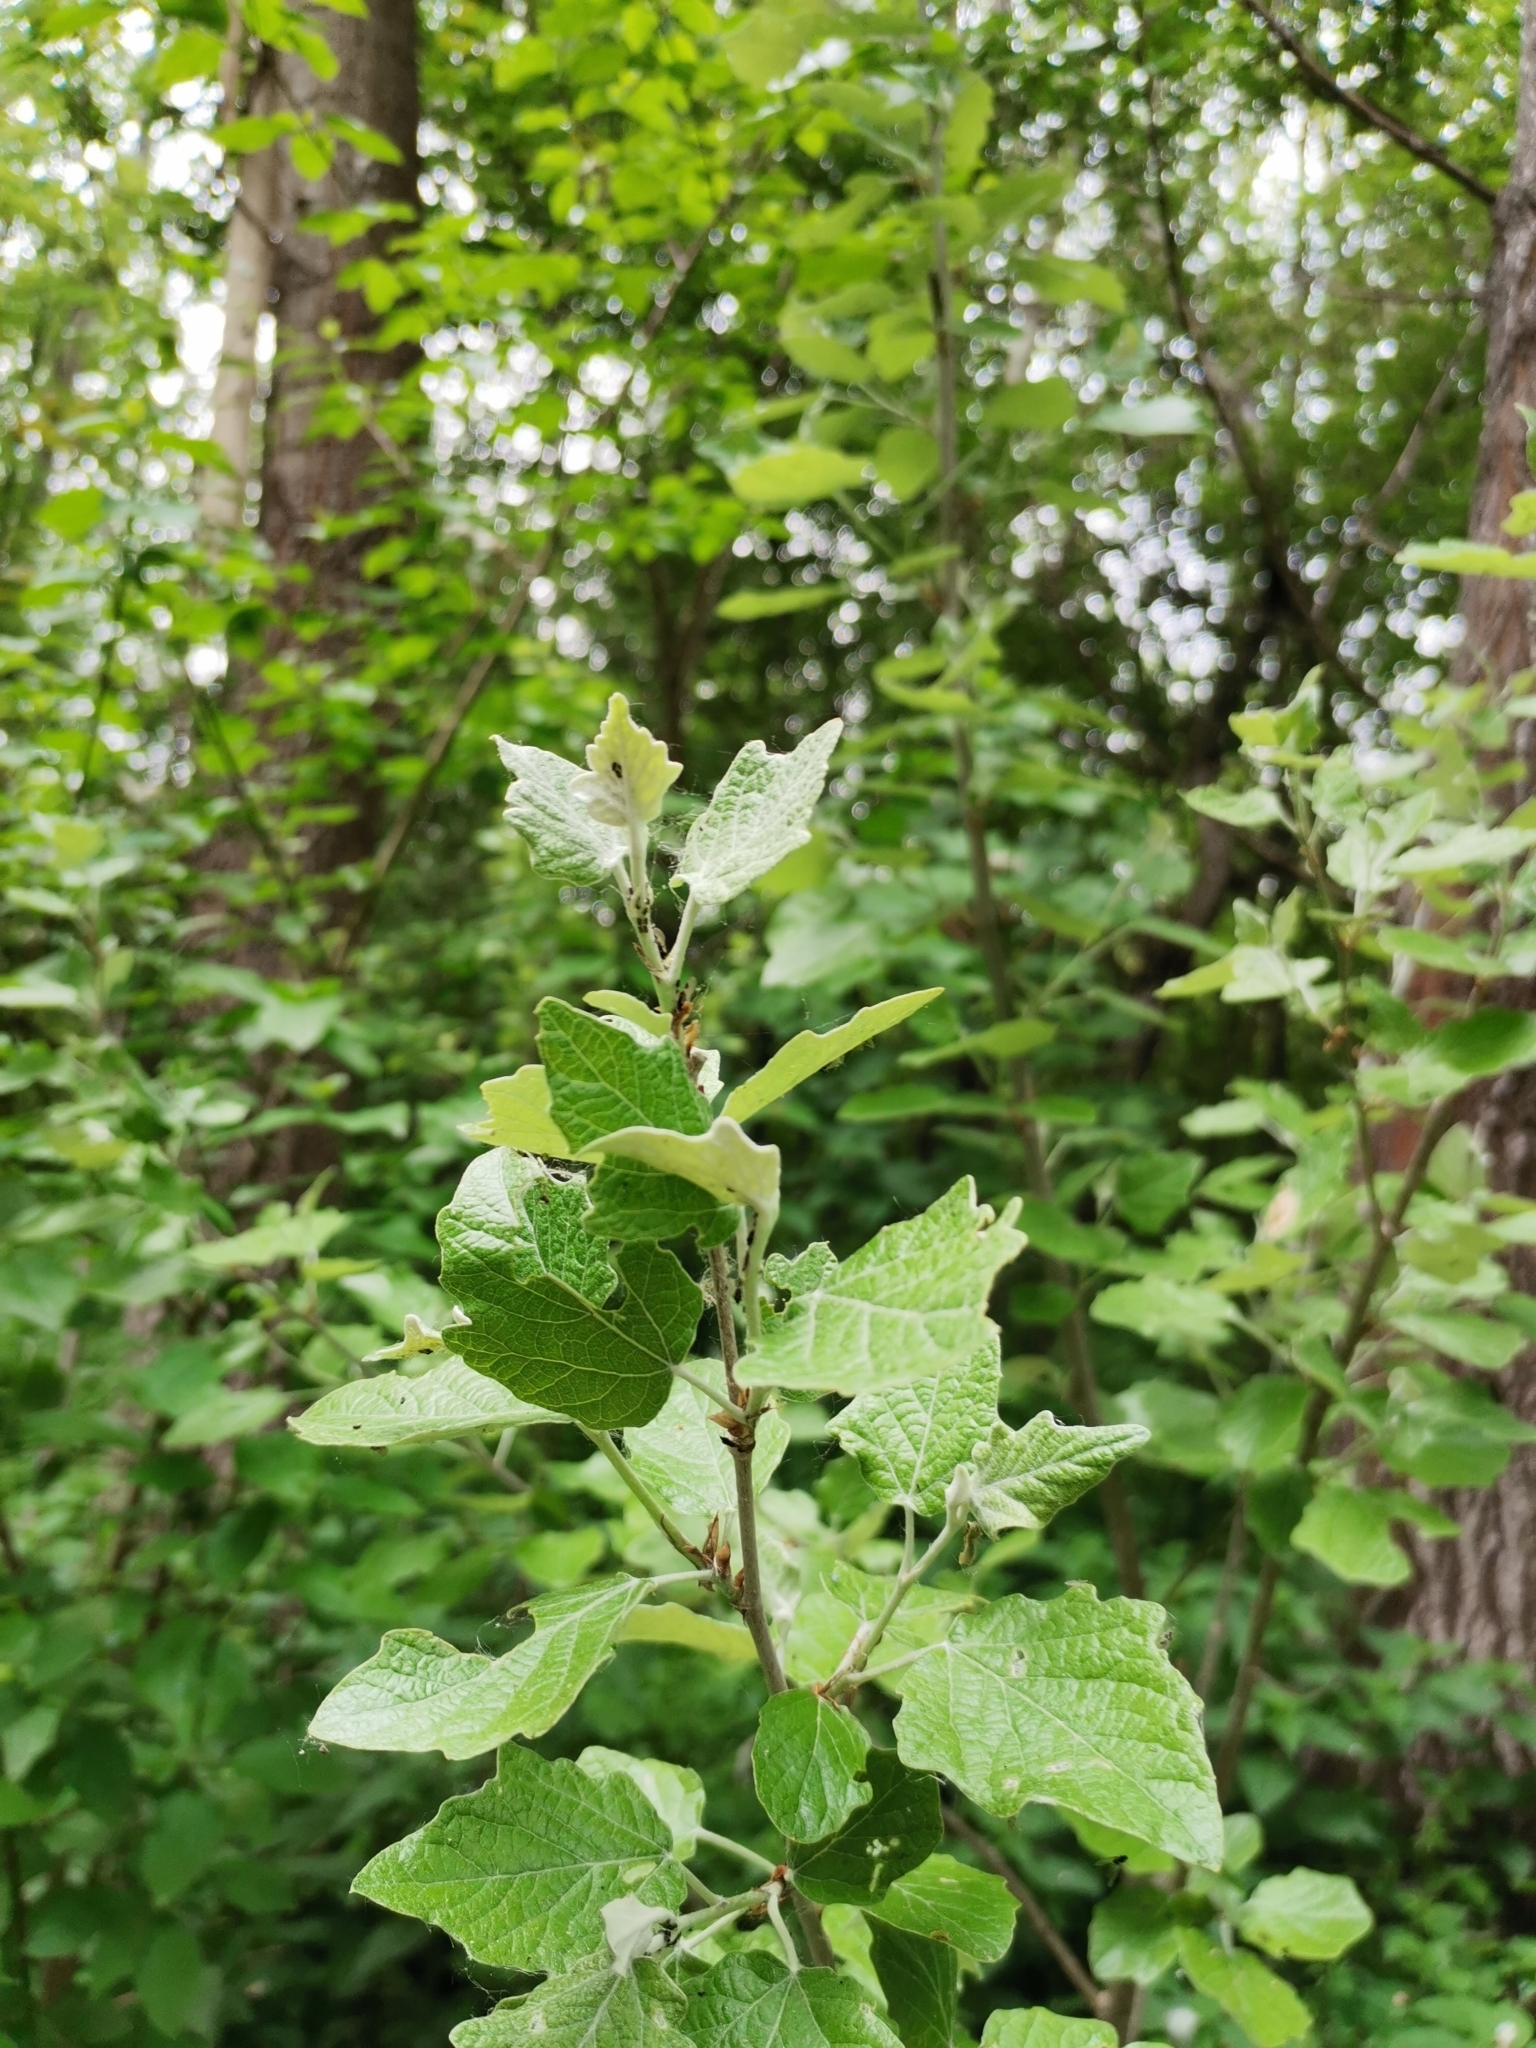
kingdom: Plantae
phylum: Tracheophyta
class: Magnoliopsida
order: Malpighiales
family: Salicaceae
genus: Populus
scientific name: Populus alba
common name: White poplar
